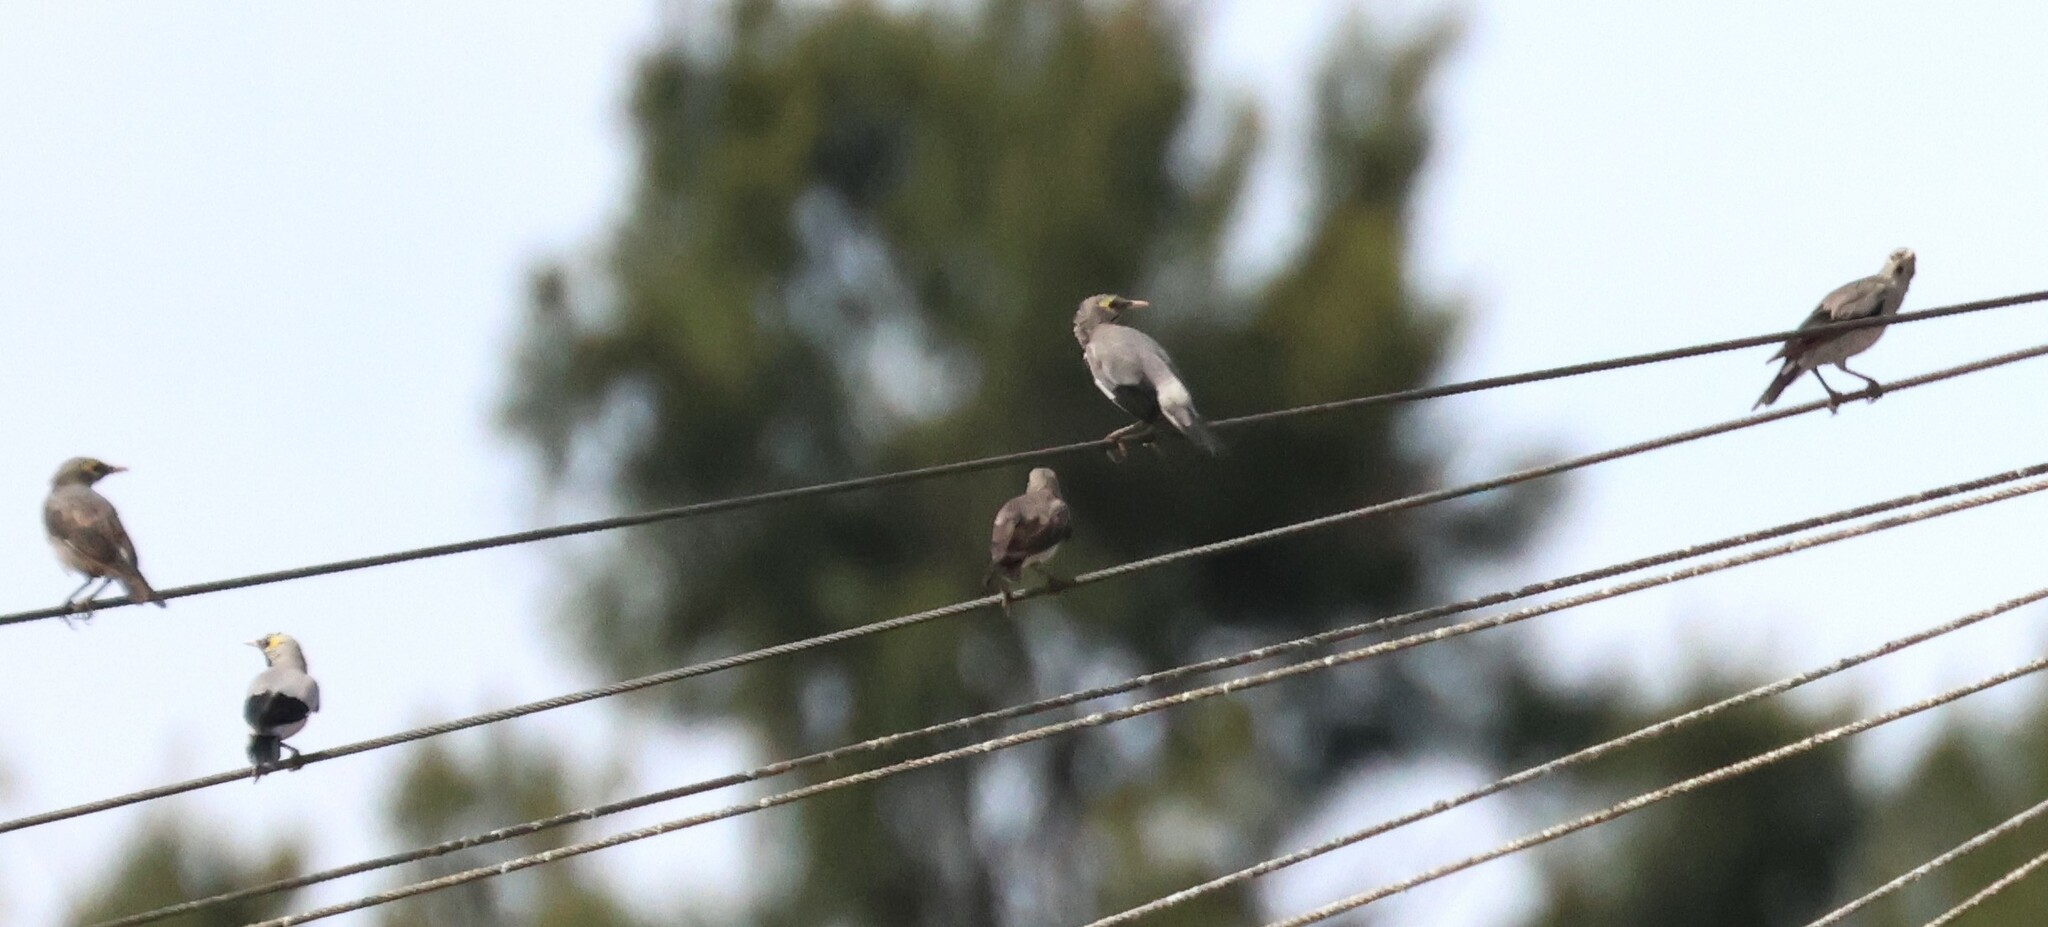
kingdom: Animalia
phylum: Chordata
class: Aves
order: Passeriformes
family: Sturnidae
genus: Creatophora
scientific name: Creatophora cinerea
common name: Wattled starling
